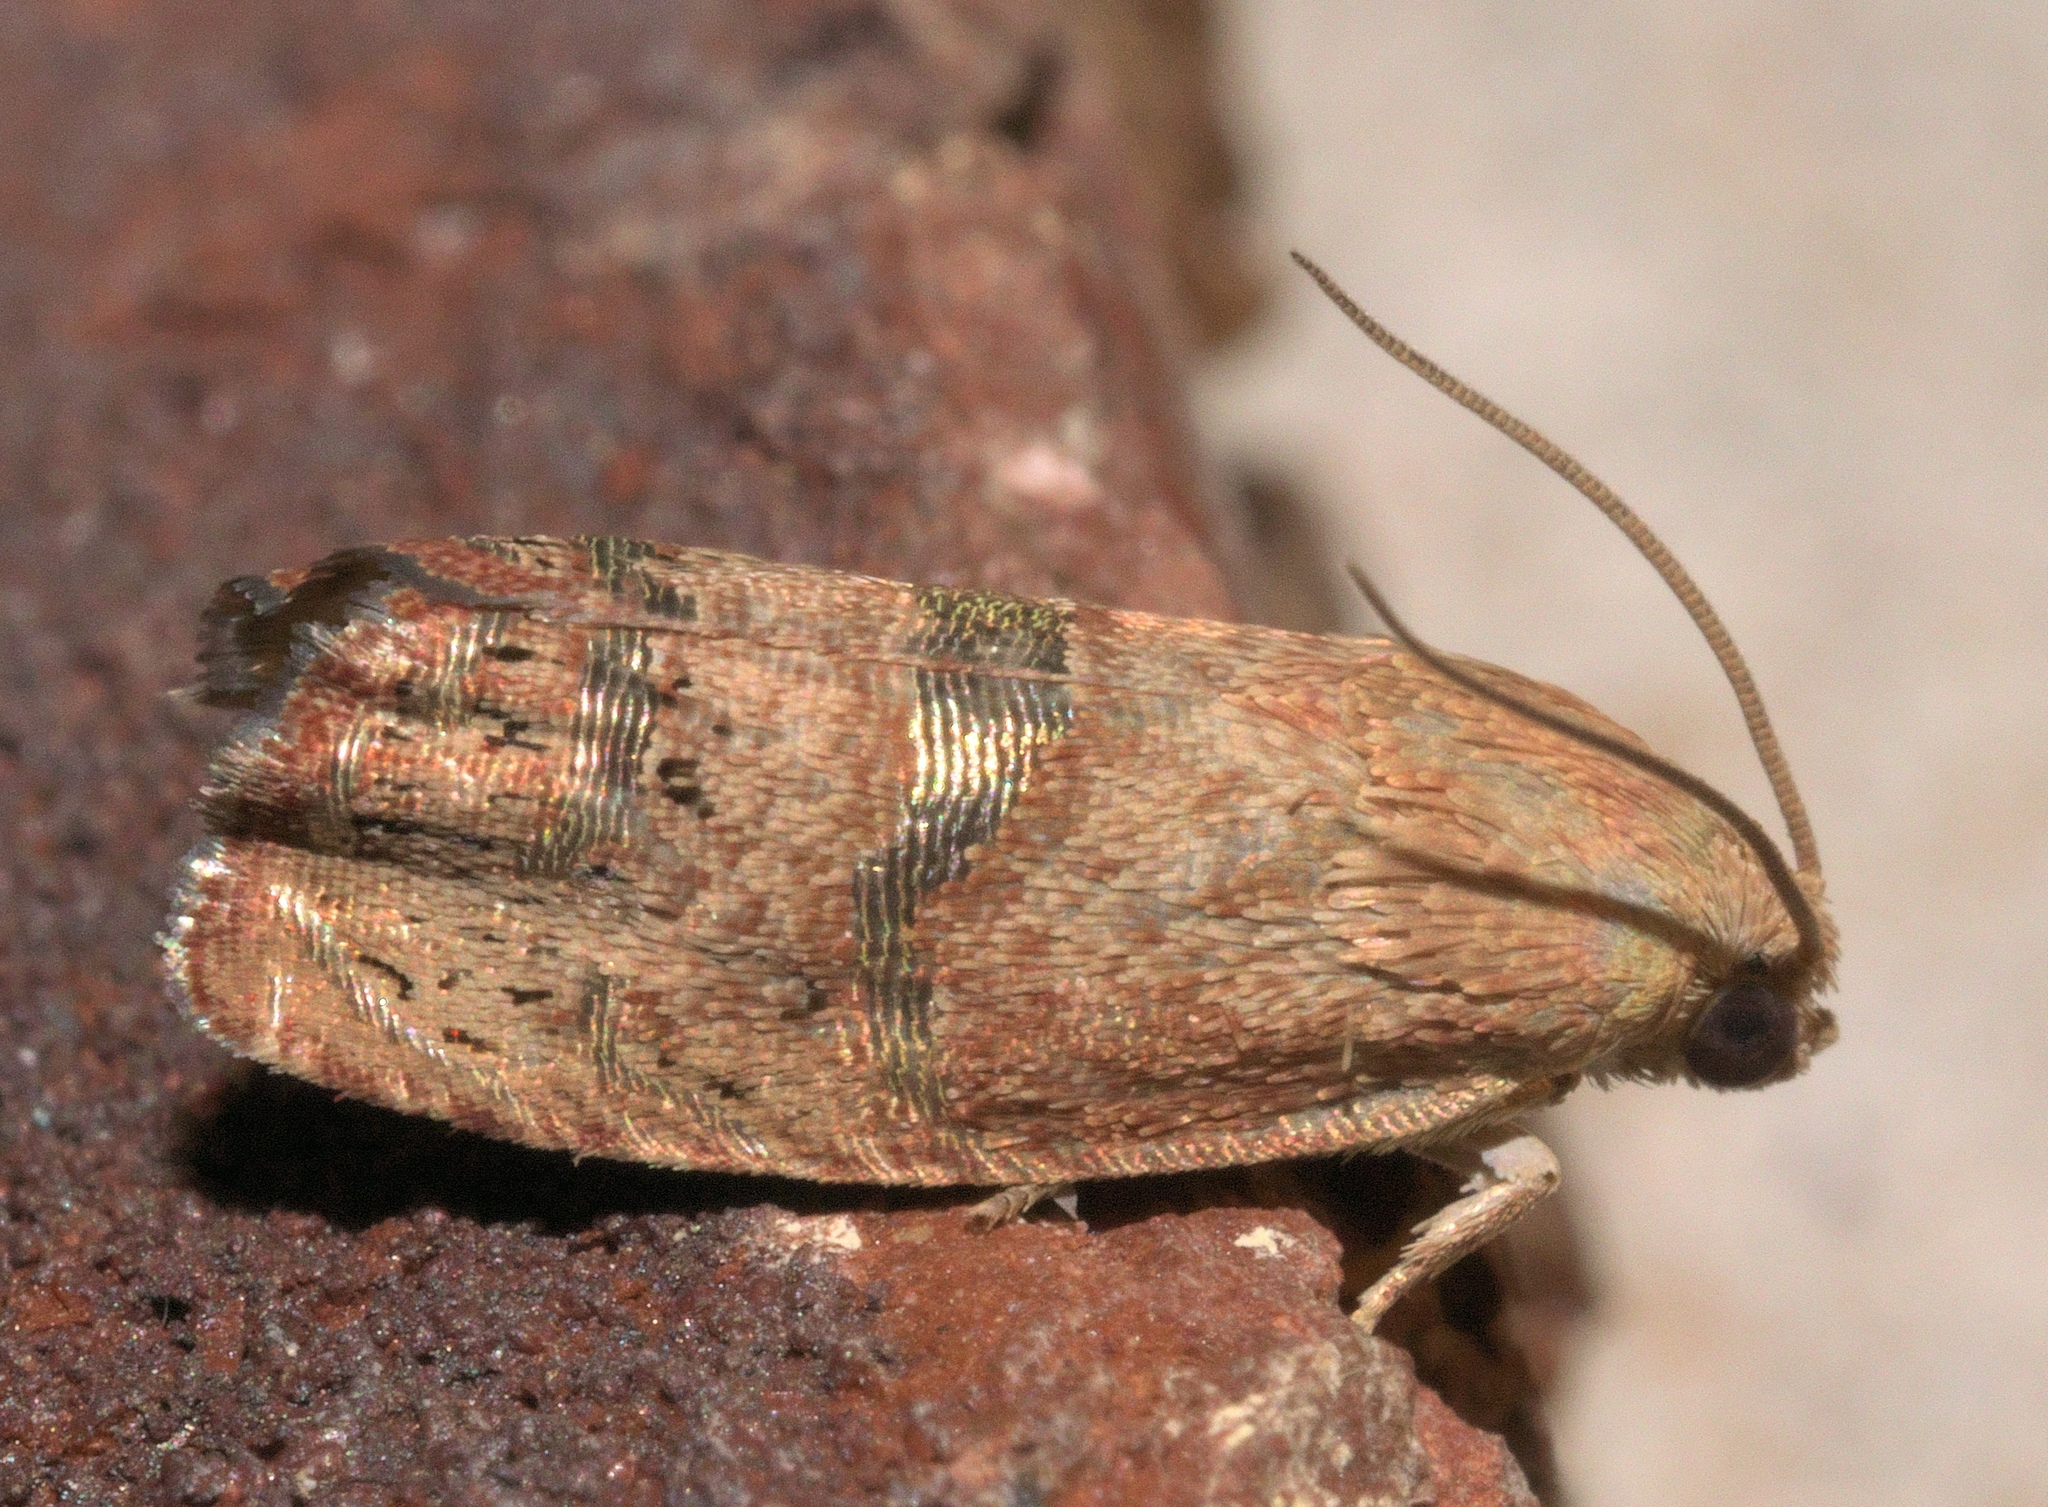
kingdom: Animalia
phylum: Arthropoda
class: Insecta
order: Lepidoptera
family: Tortricidae
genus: Cydia
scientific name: Cydia latiferreana
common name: Filbertworm moth
